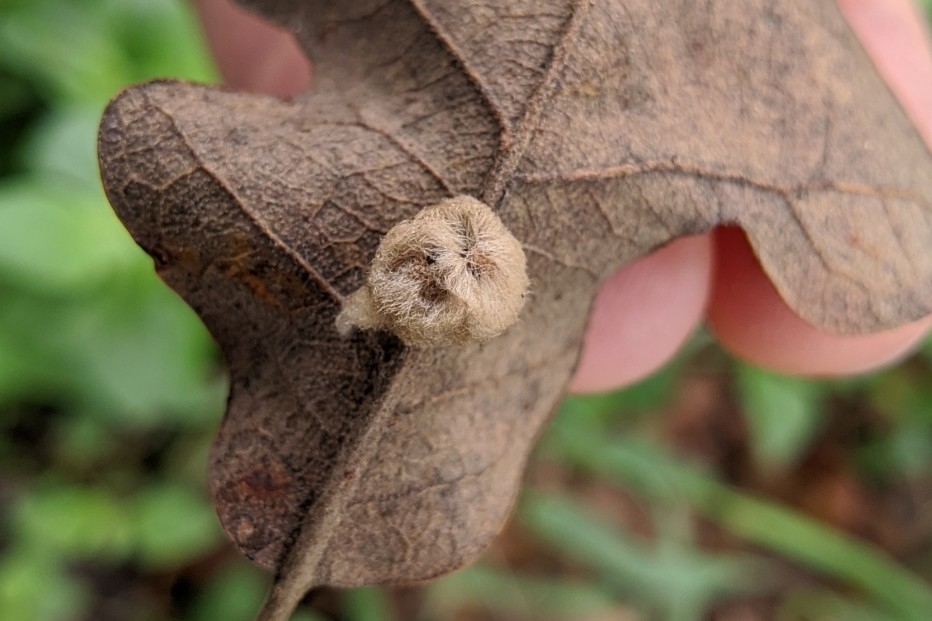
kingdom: Animalia
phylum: Arthropoda
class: Insecta
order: Hymenoptera
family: Cynipidae
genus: Andricus
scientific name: Andricus Druon pattoni
